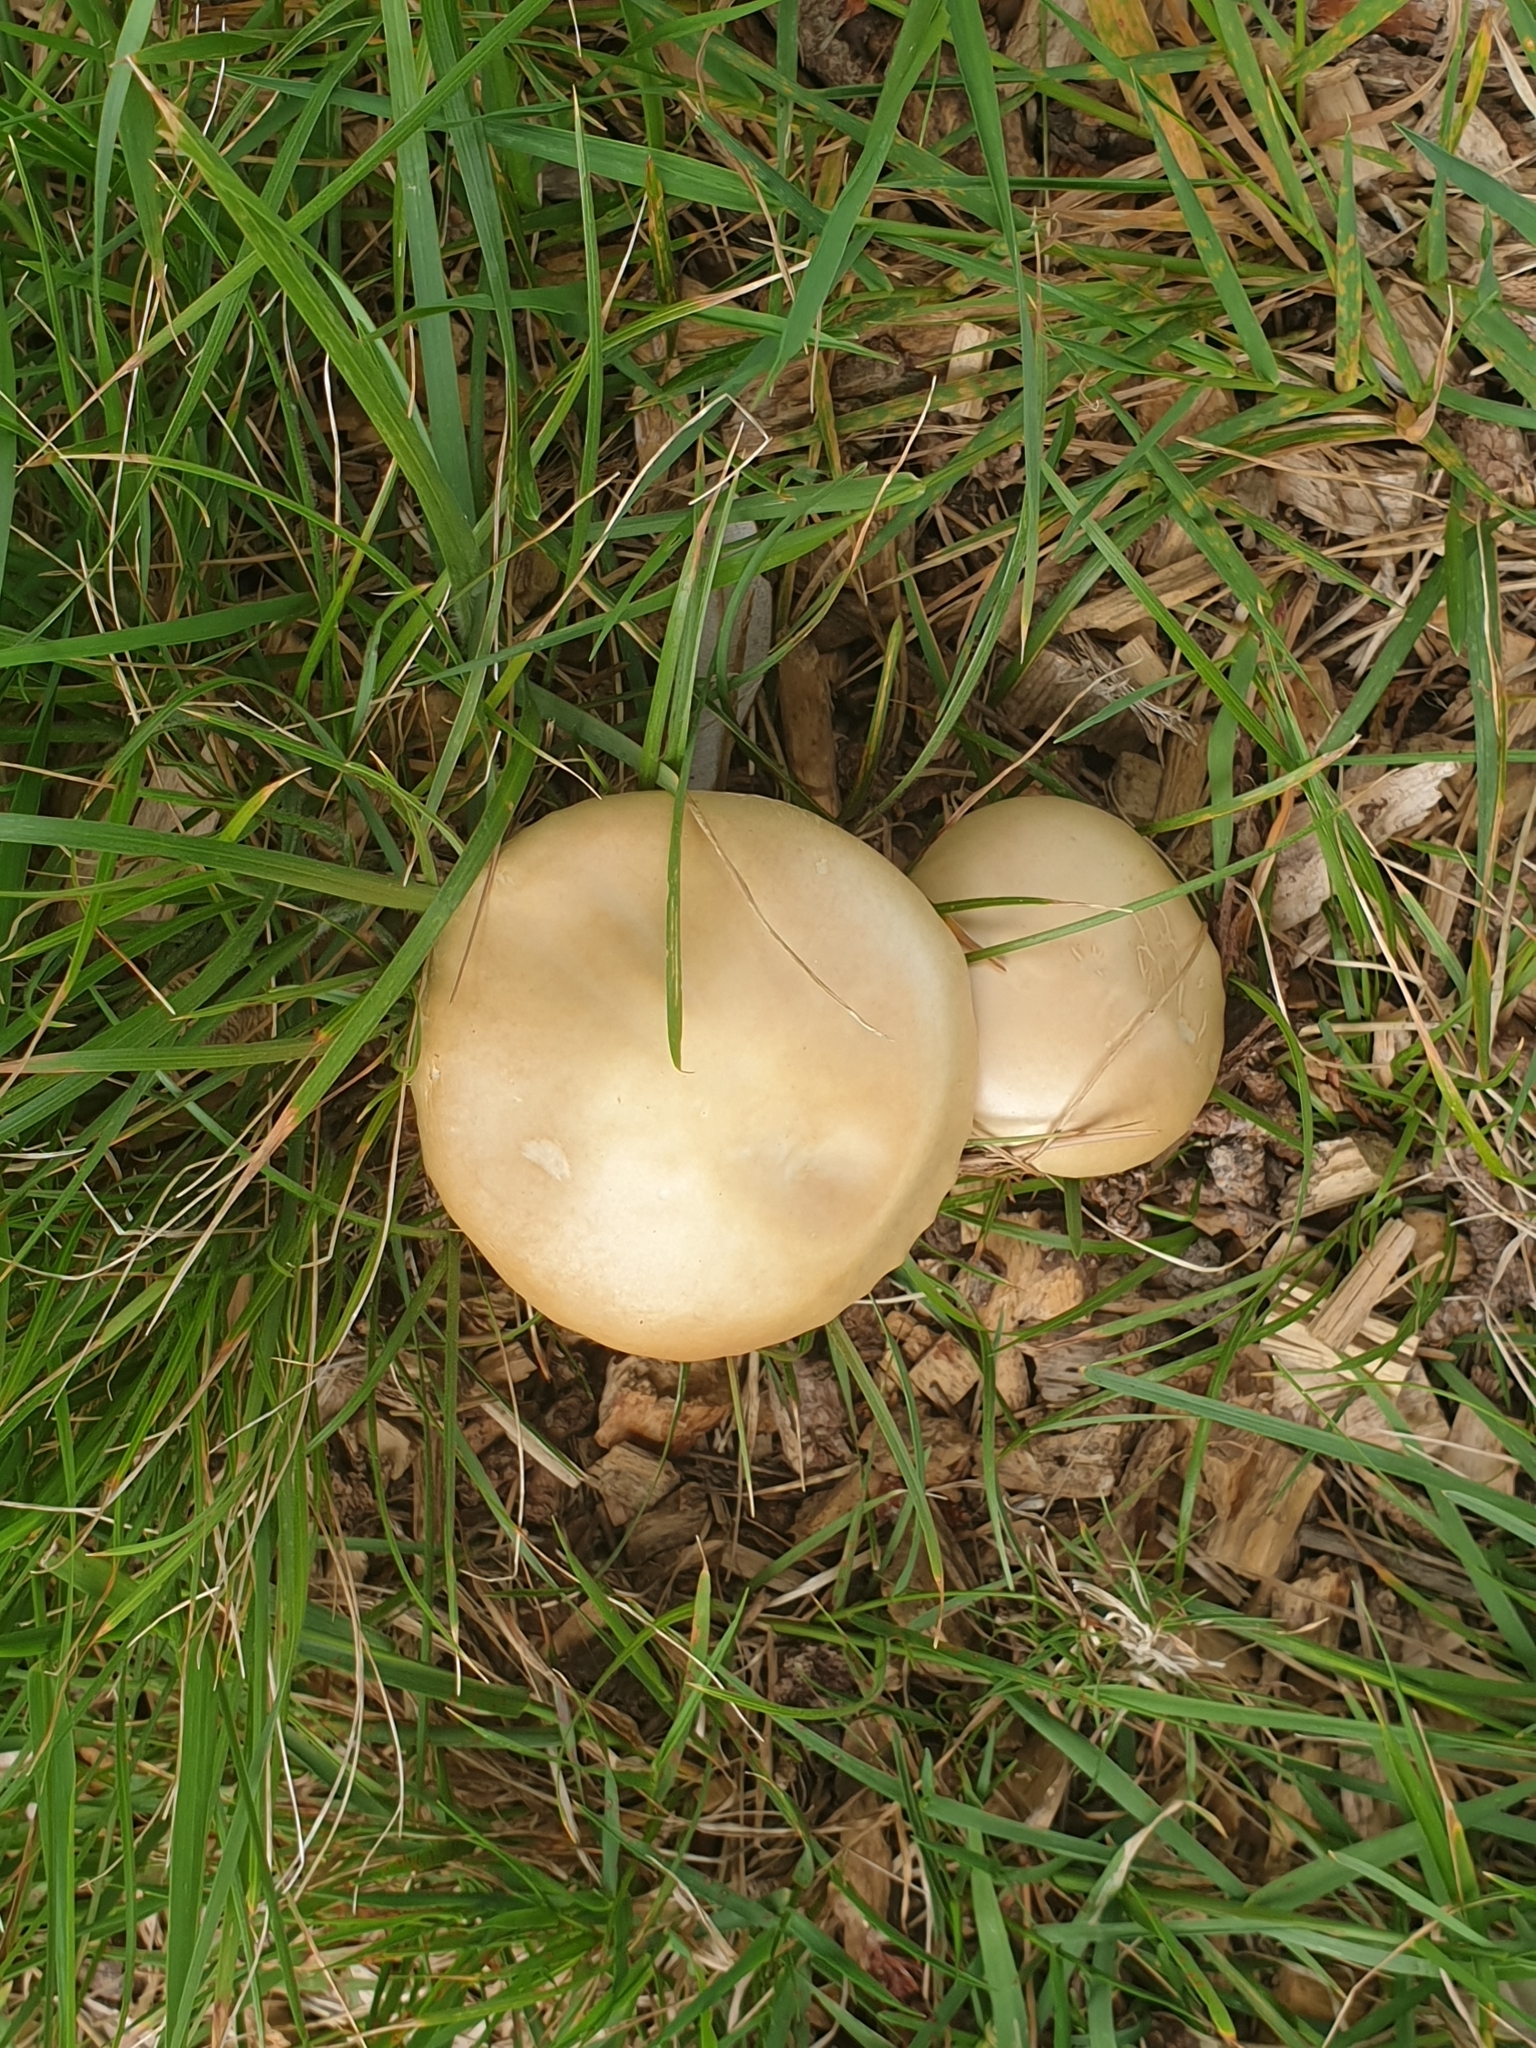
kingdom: Fungi
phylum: Basidiomycota
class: Agaricomycetes
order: Agaricales
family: Strophariaceae
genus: Agrocybe
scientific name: Agrocybe praecox
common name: Spring fieldcap
